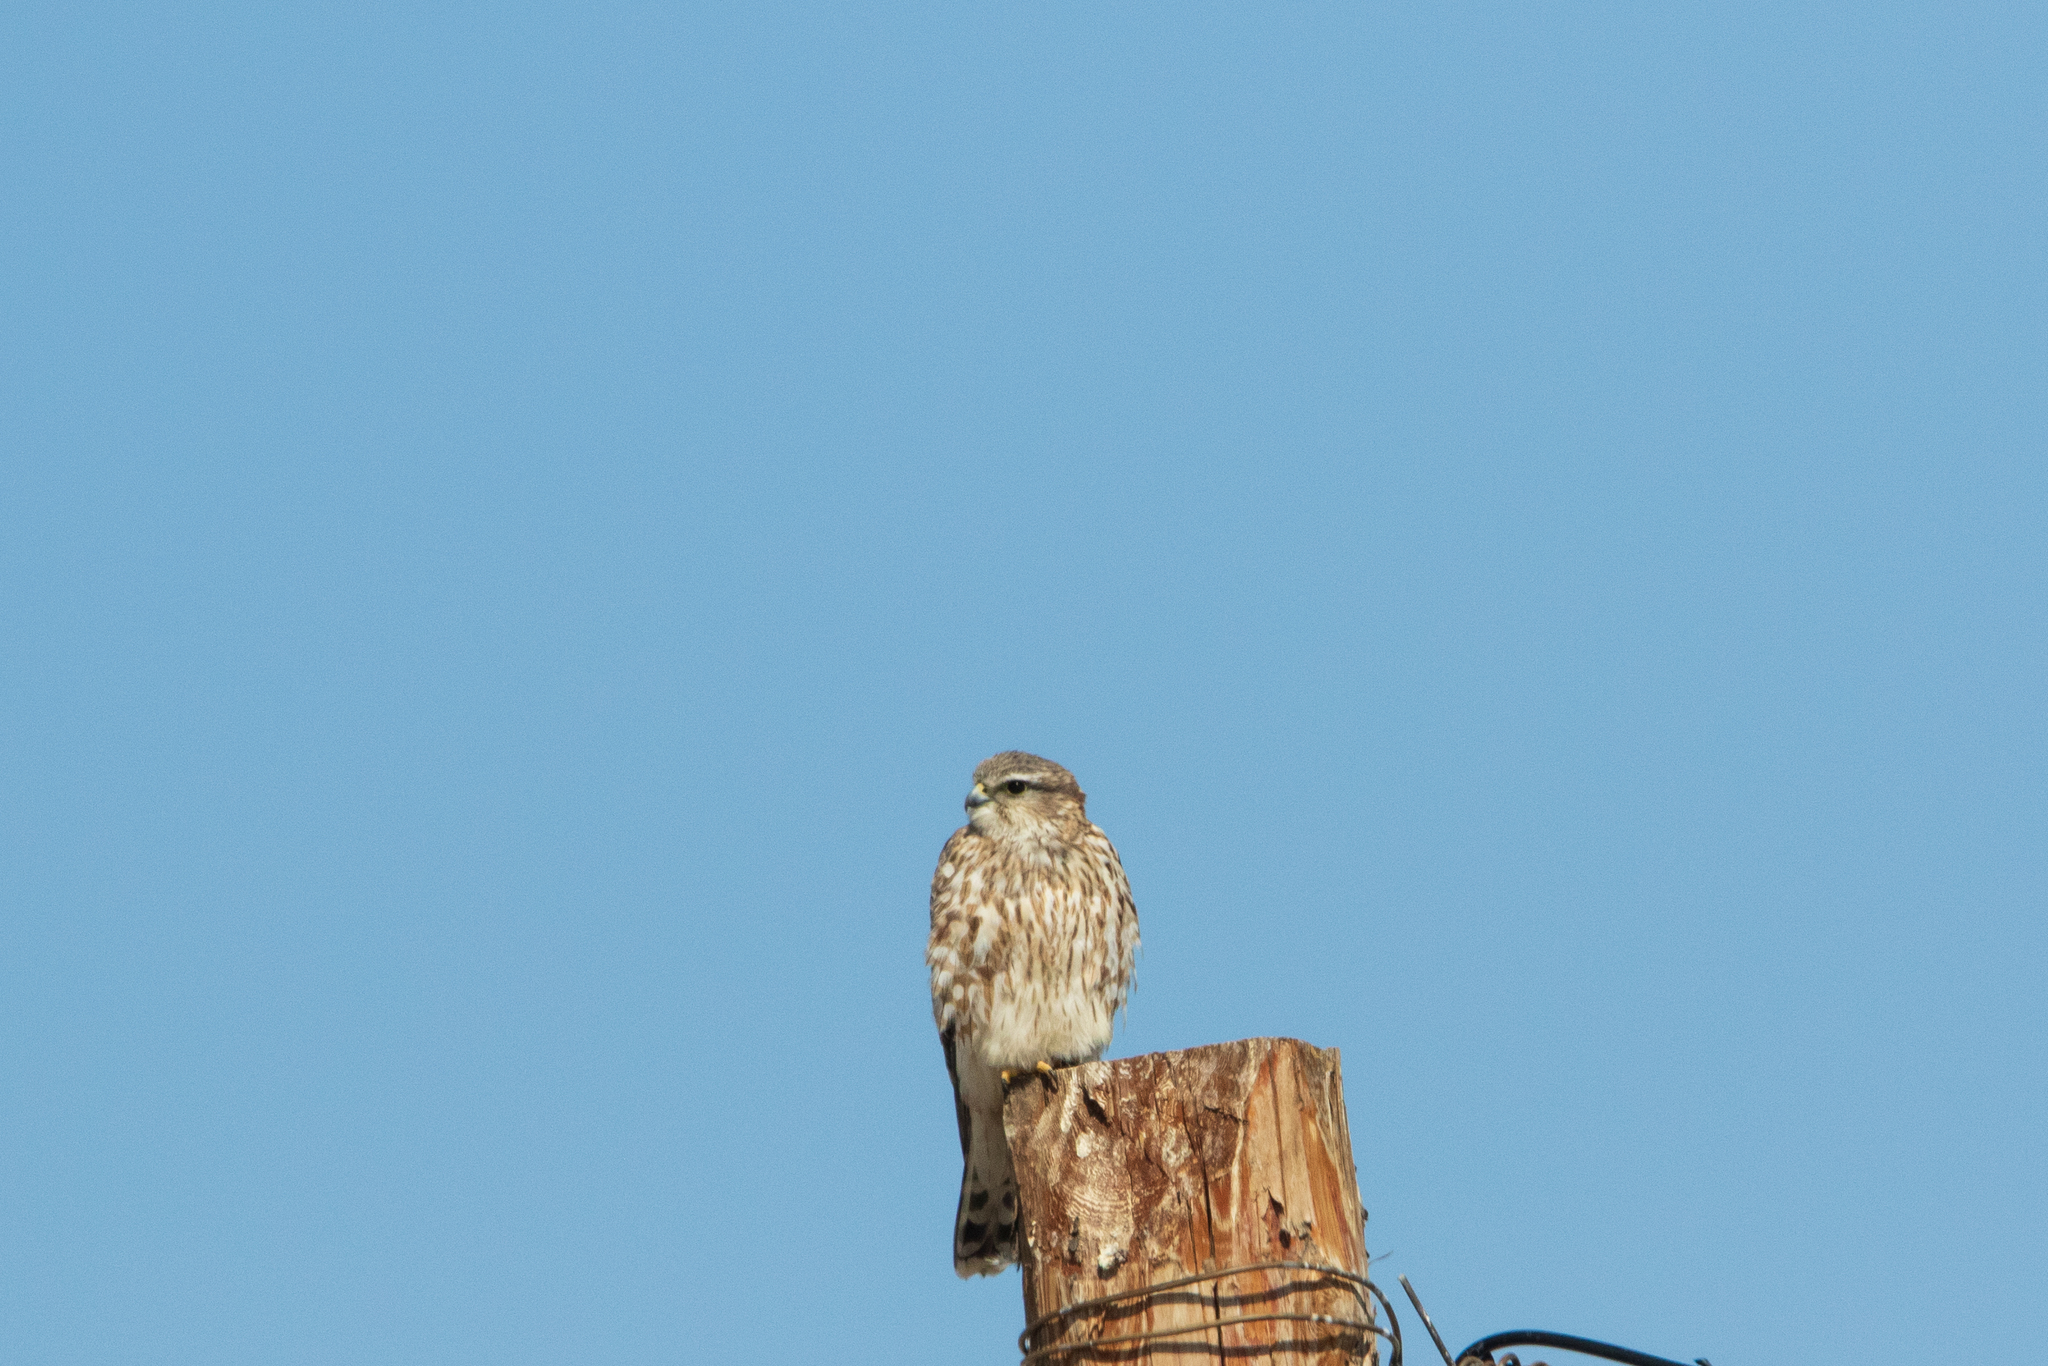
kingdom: Animalia
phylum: Chordata
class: Aves
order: Falconiformes
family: Falconidae
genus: Falco
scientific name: Falco columbarius
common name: Merlin
